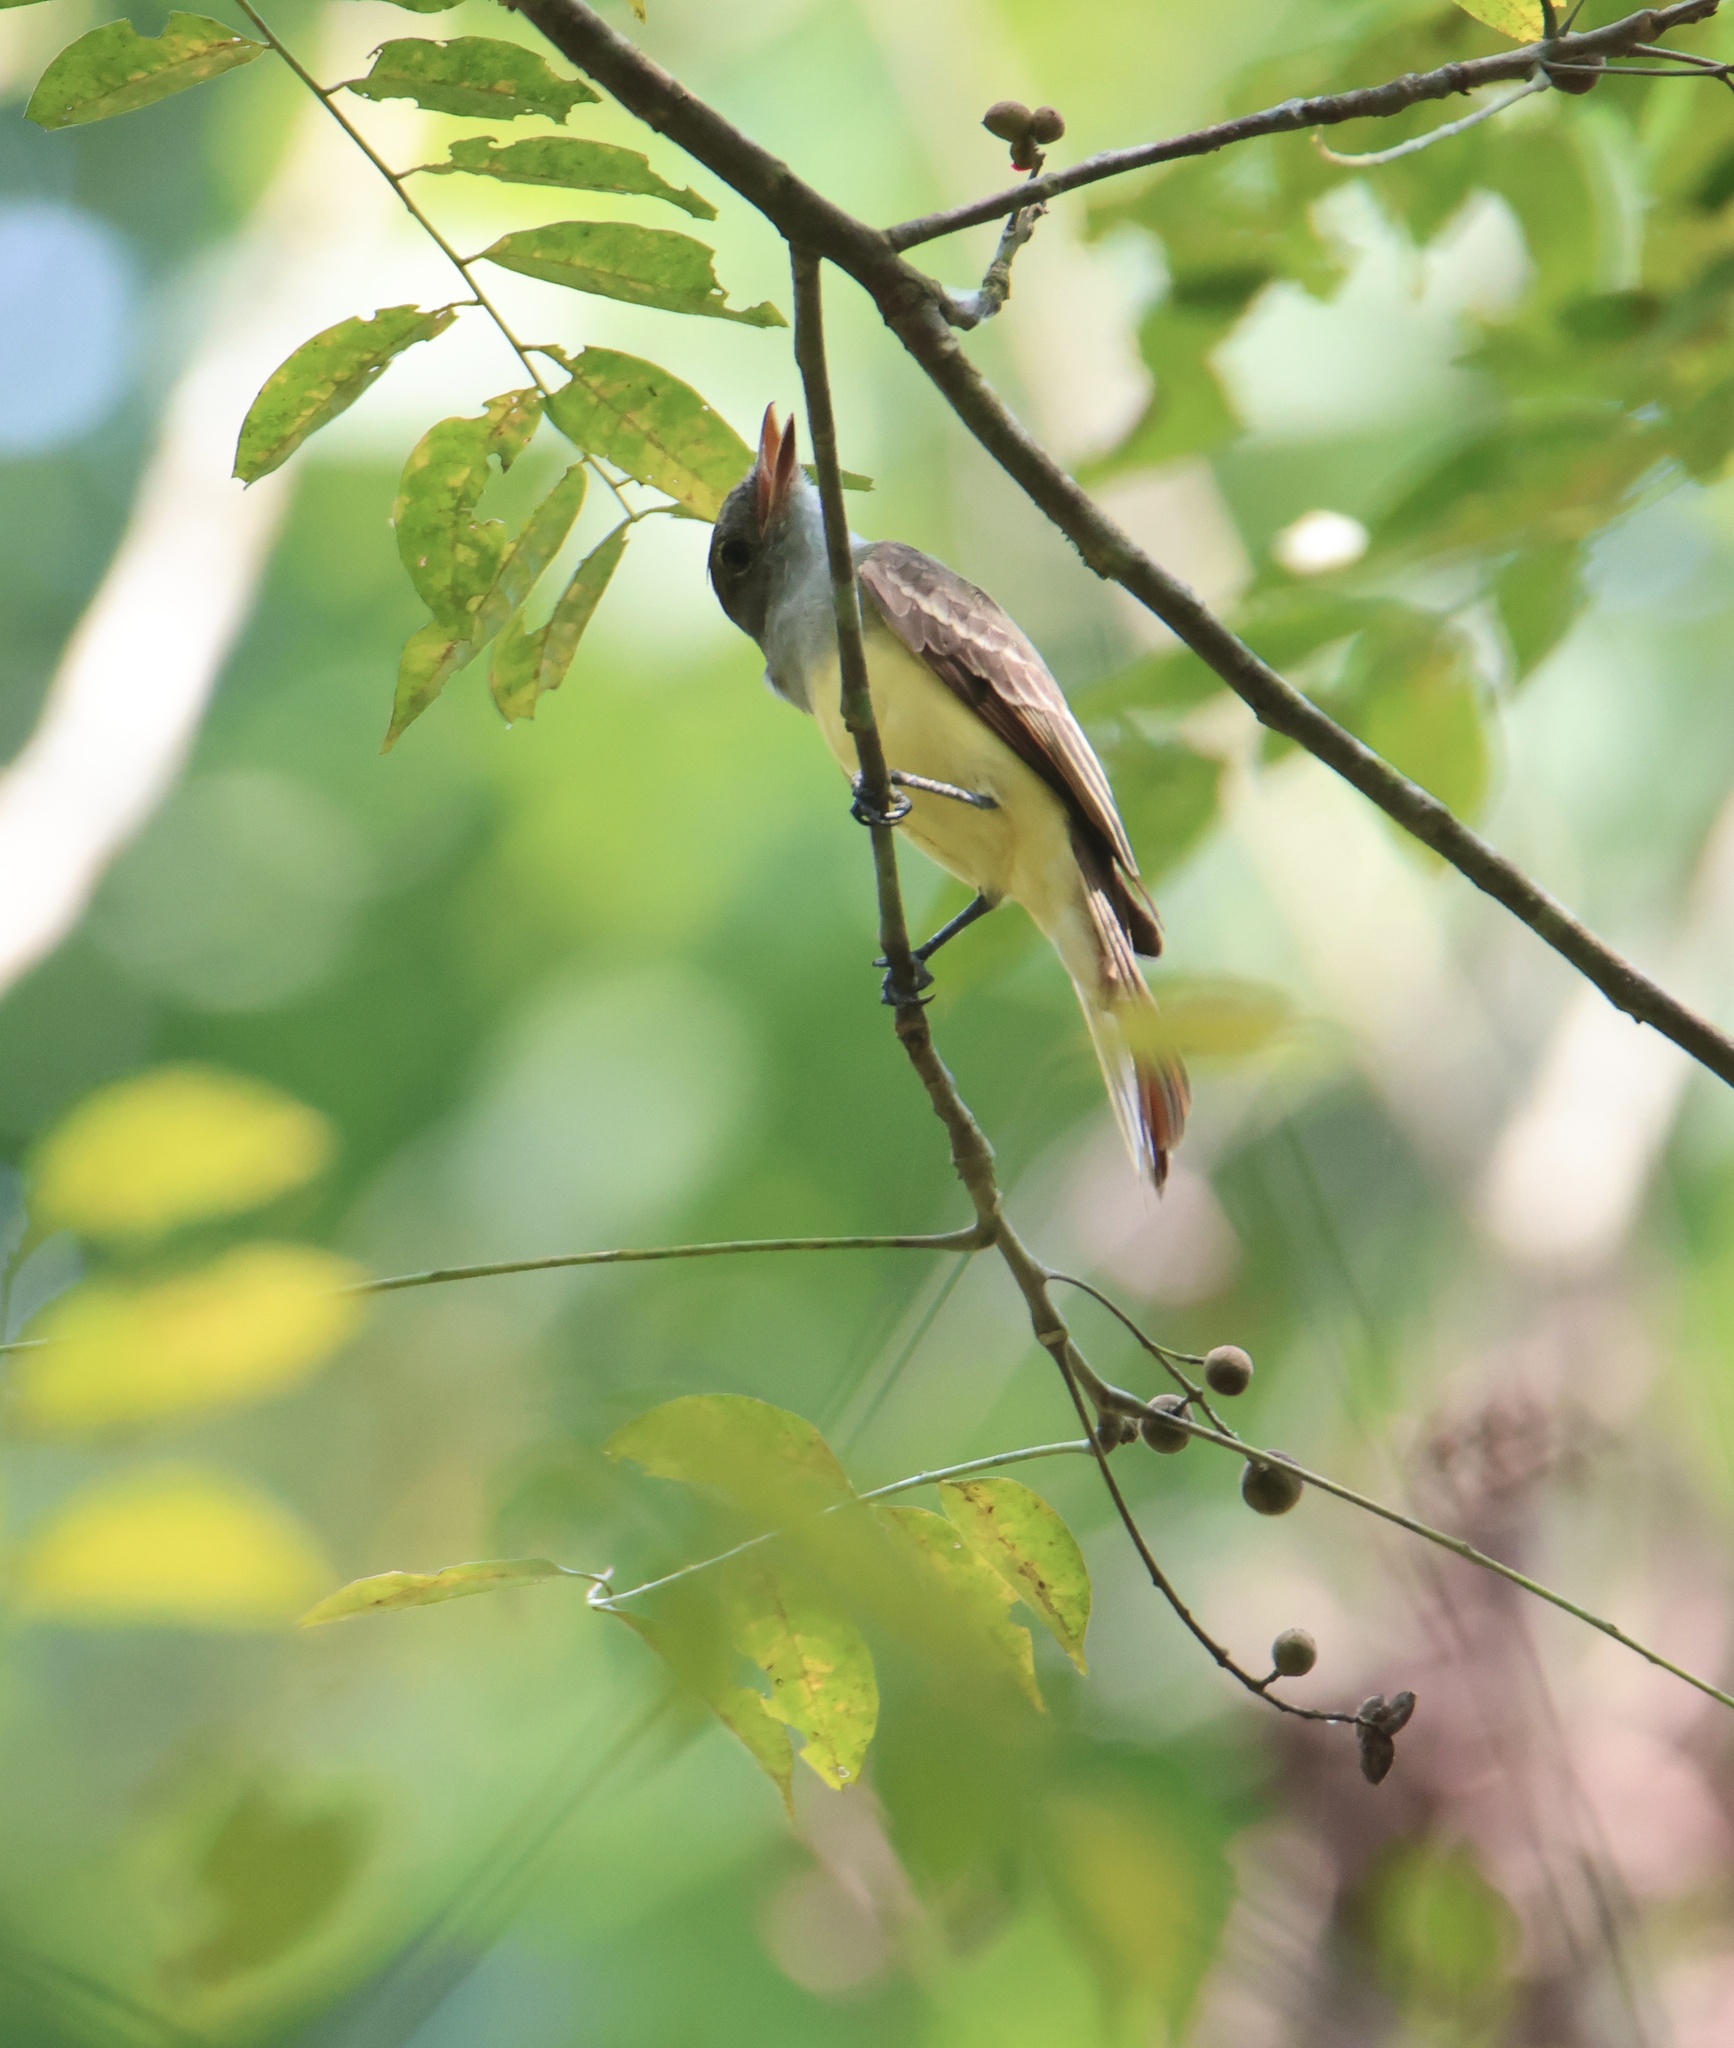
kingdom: Animalia
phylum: Chordata
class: Aves
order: Passeriformes
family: Tyrannidae
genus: Myiarchus
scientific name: Myiarchus crinitus
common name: Great crested flycatcher
